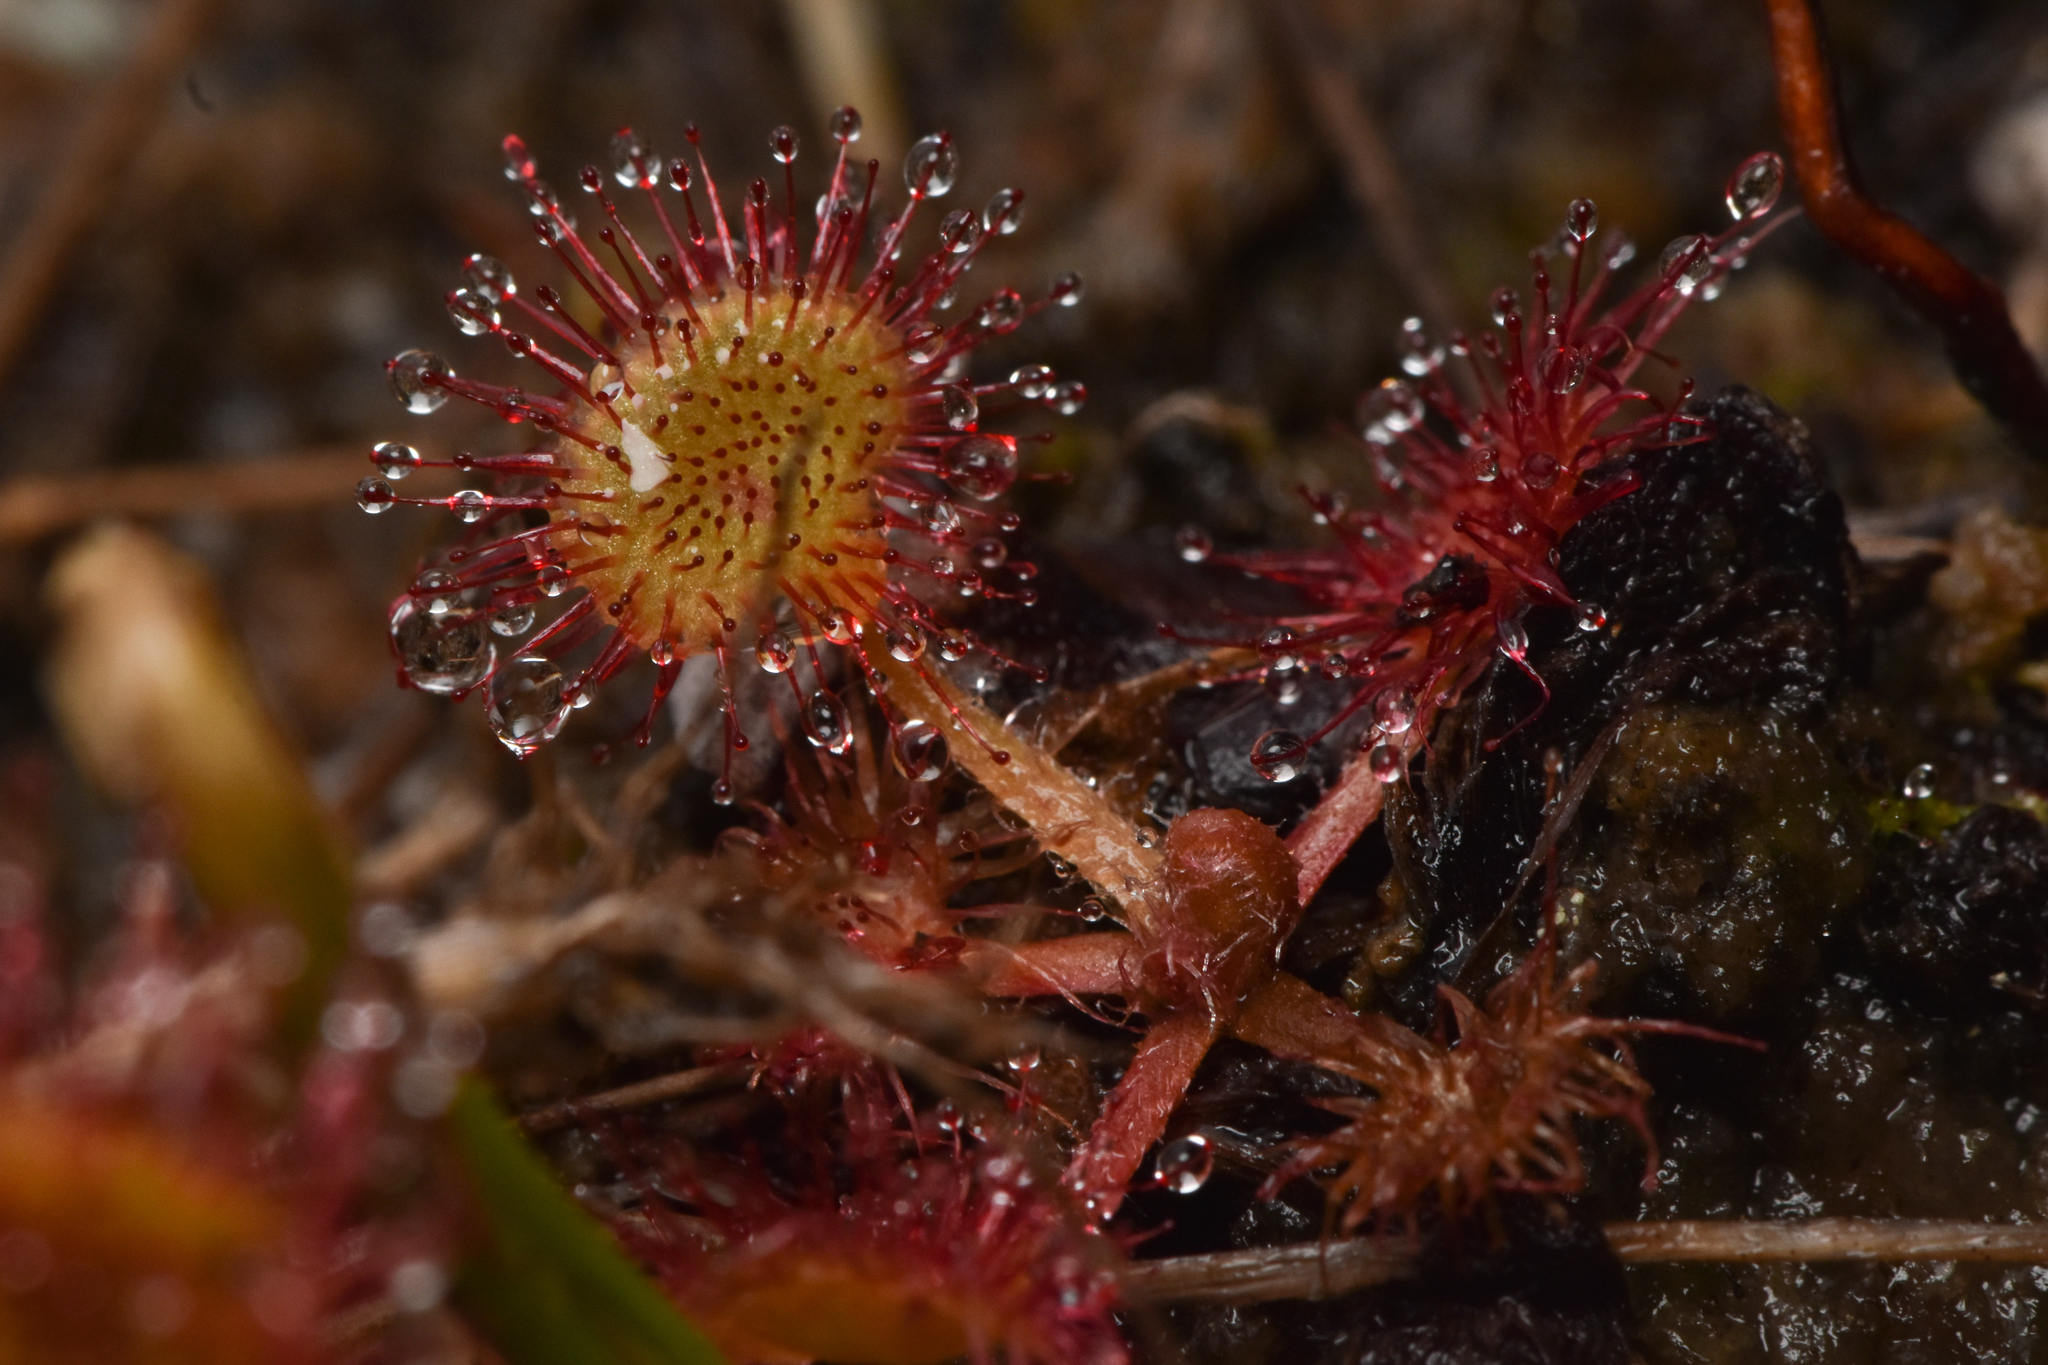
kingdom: Plantae
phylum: Tracheophyta
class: Magnoliopsida
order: Caryophyllales
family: Droseraceae
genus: Drosera
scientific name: Drosera rotundifolia
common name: Round-leaved sundew
